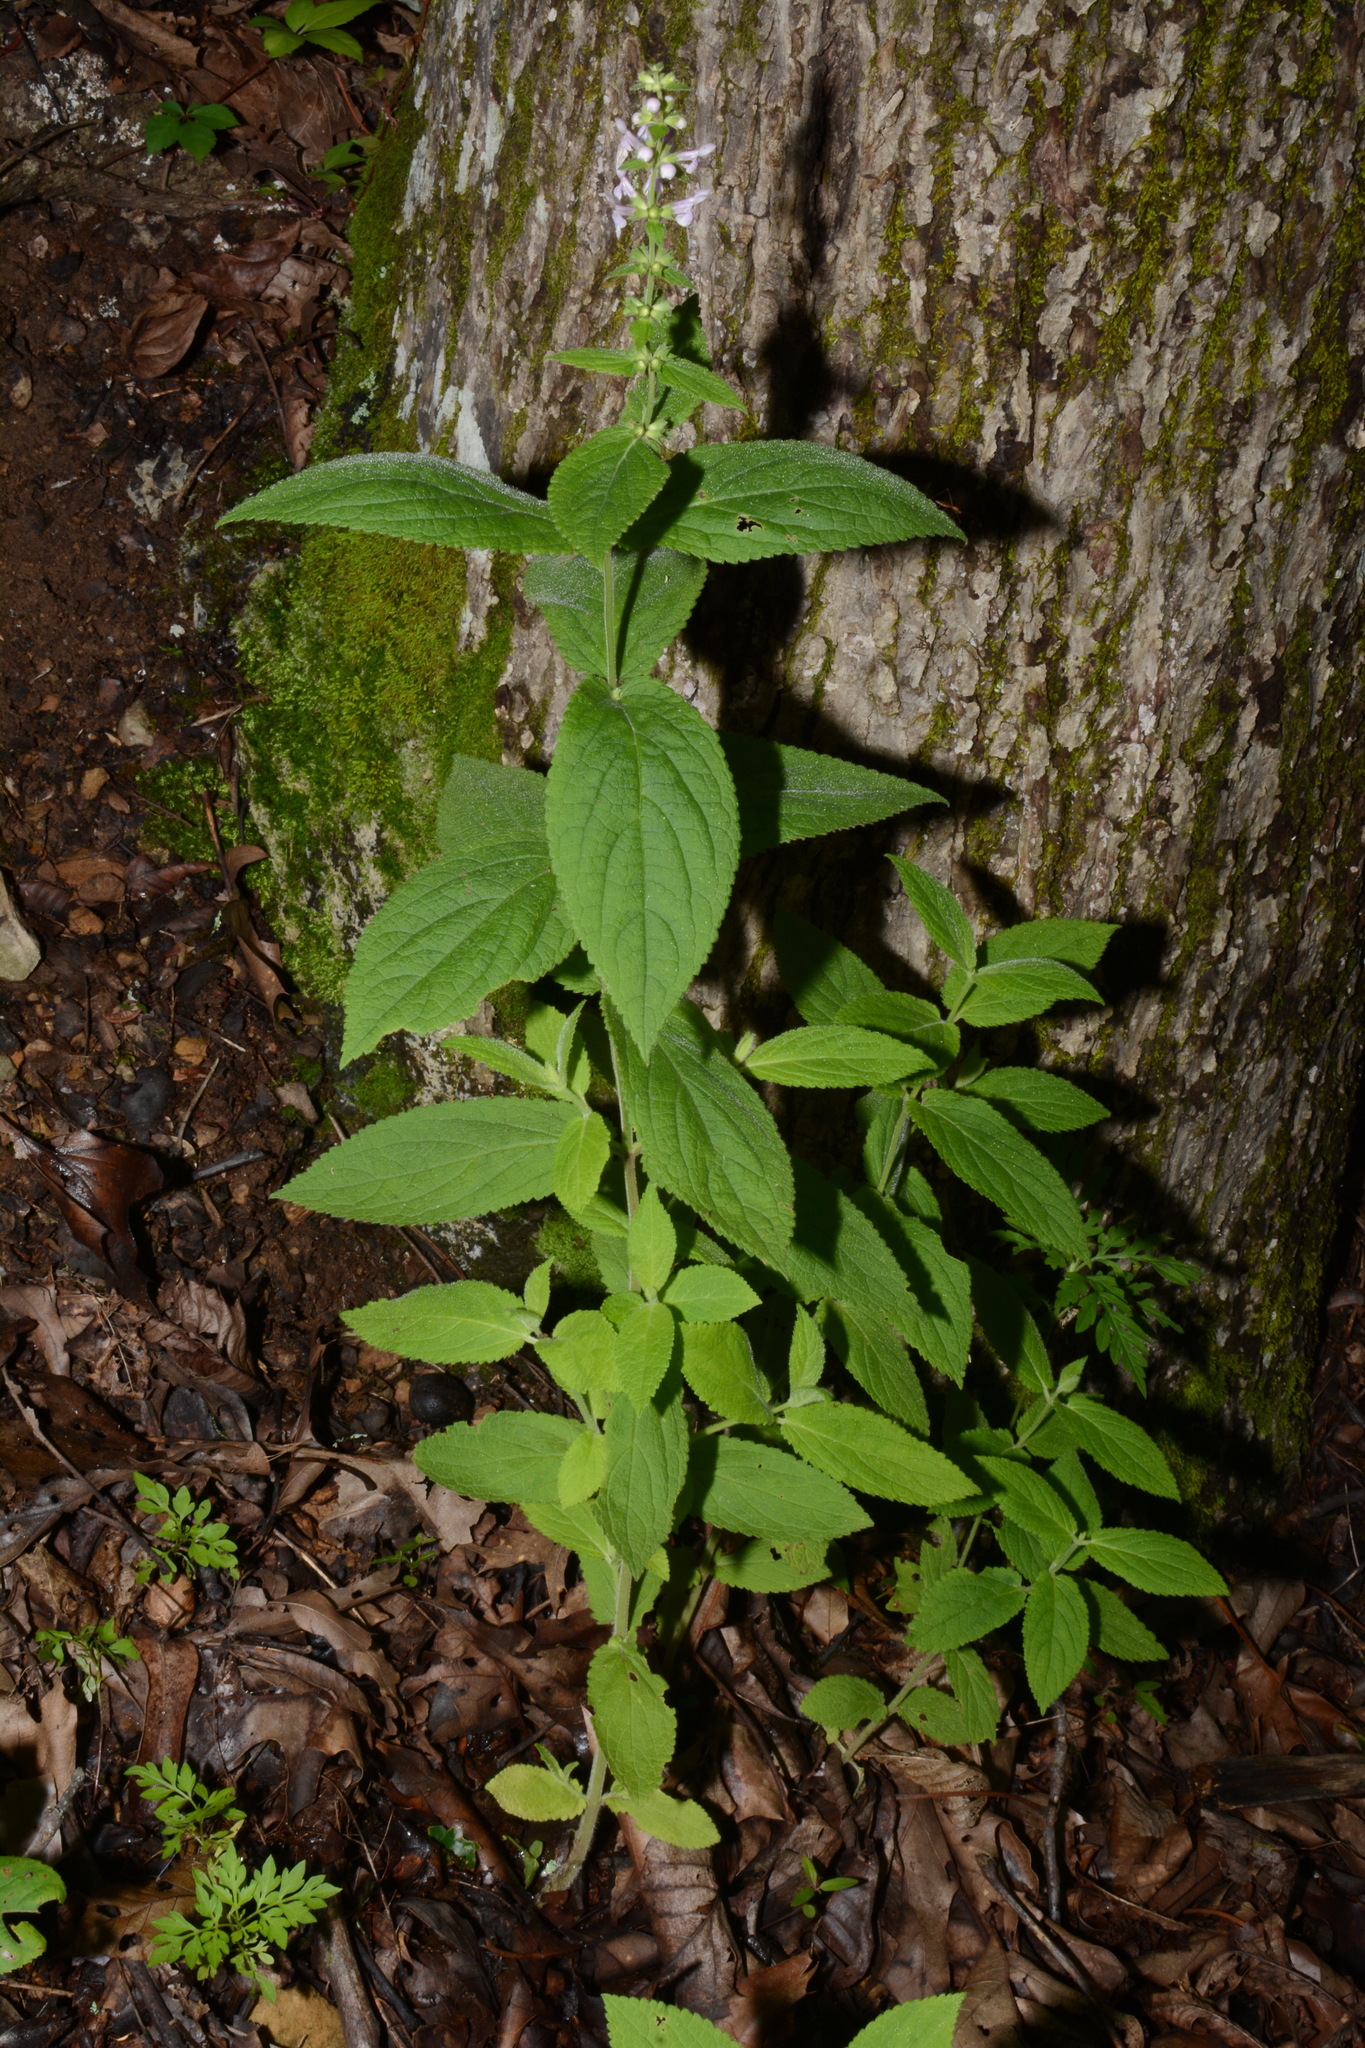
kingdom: Plantae
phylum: Tracheophyta
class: Magnoliopsida
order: Lamiales
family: Lamiaceae
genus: Stachys
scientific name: Stachys alabamica
